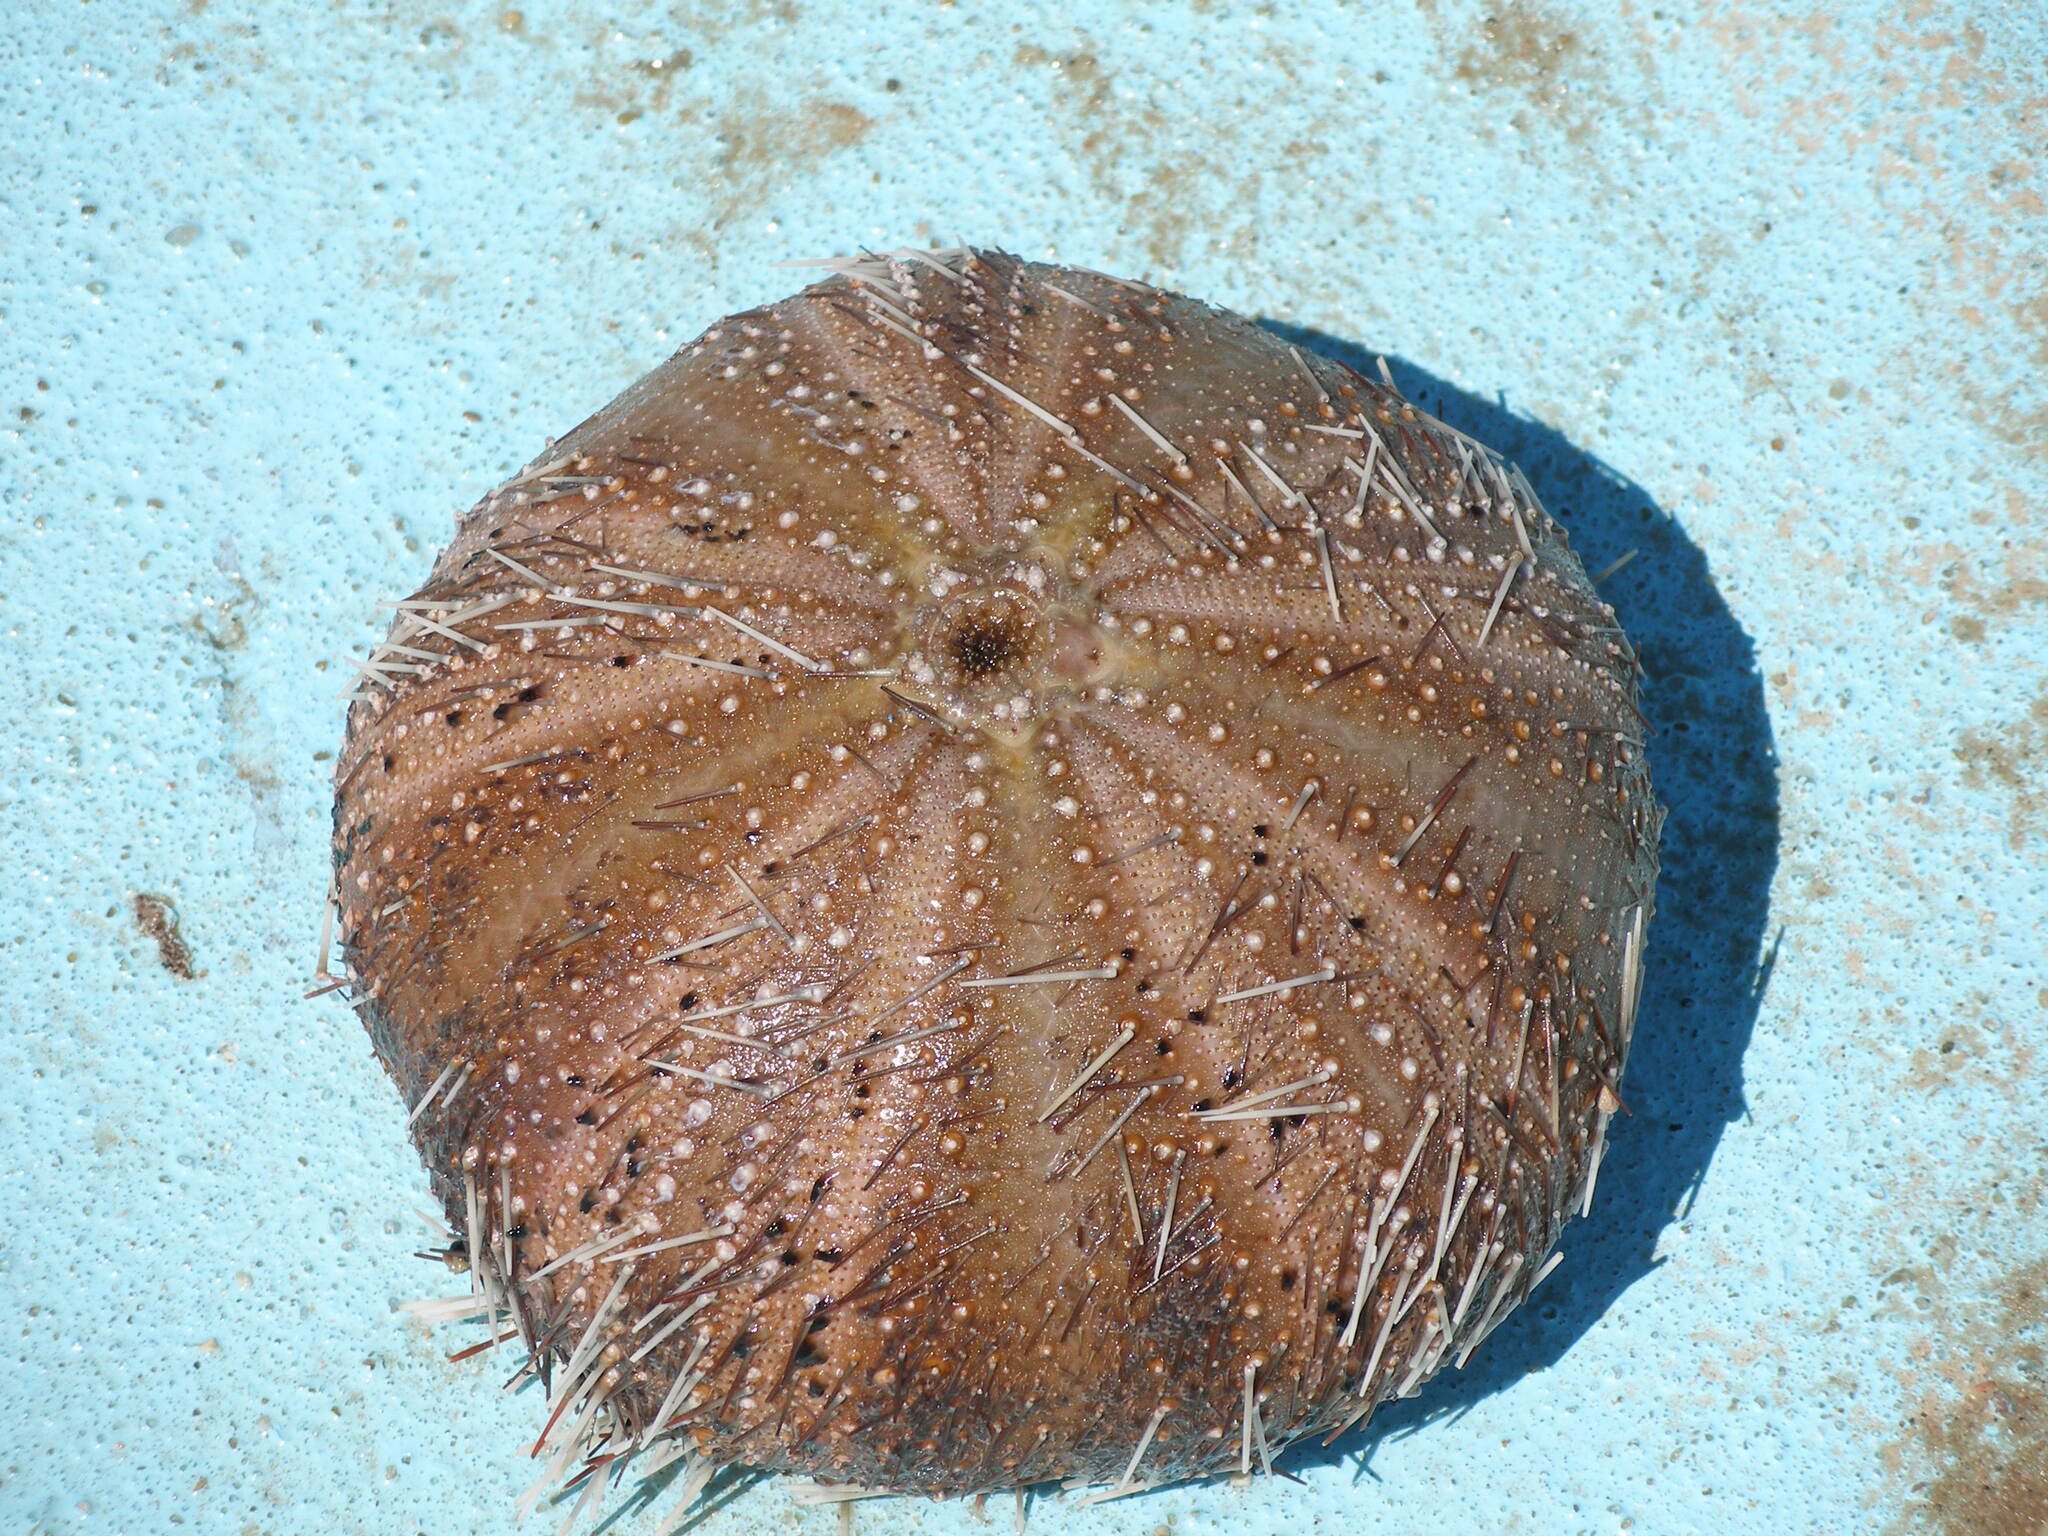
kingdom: Animalia
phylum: Echinodermata
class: Echinoidea
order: Camarodonta
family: Toxopneustidae
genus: Tripneustes
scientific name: Tripneustes gratilla
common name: Bischofsmützenseeigel
